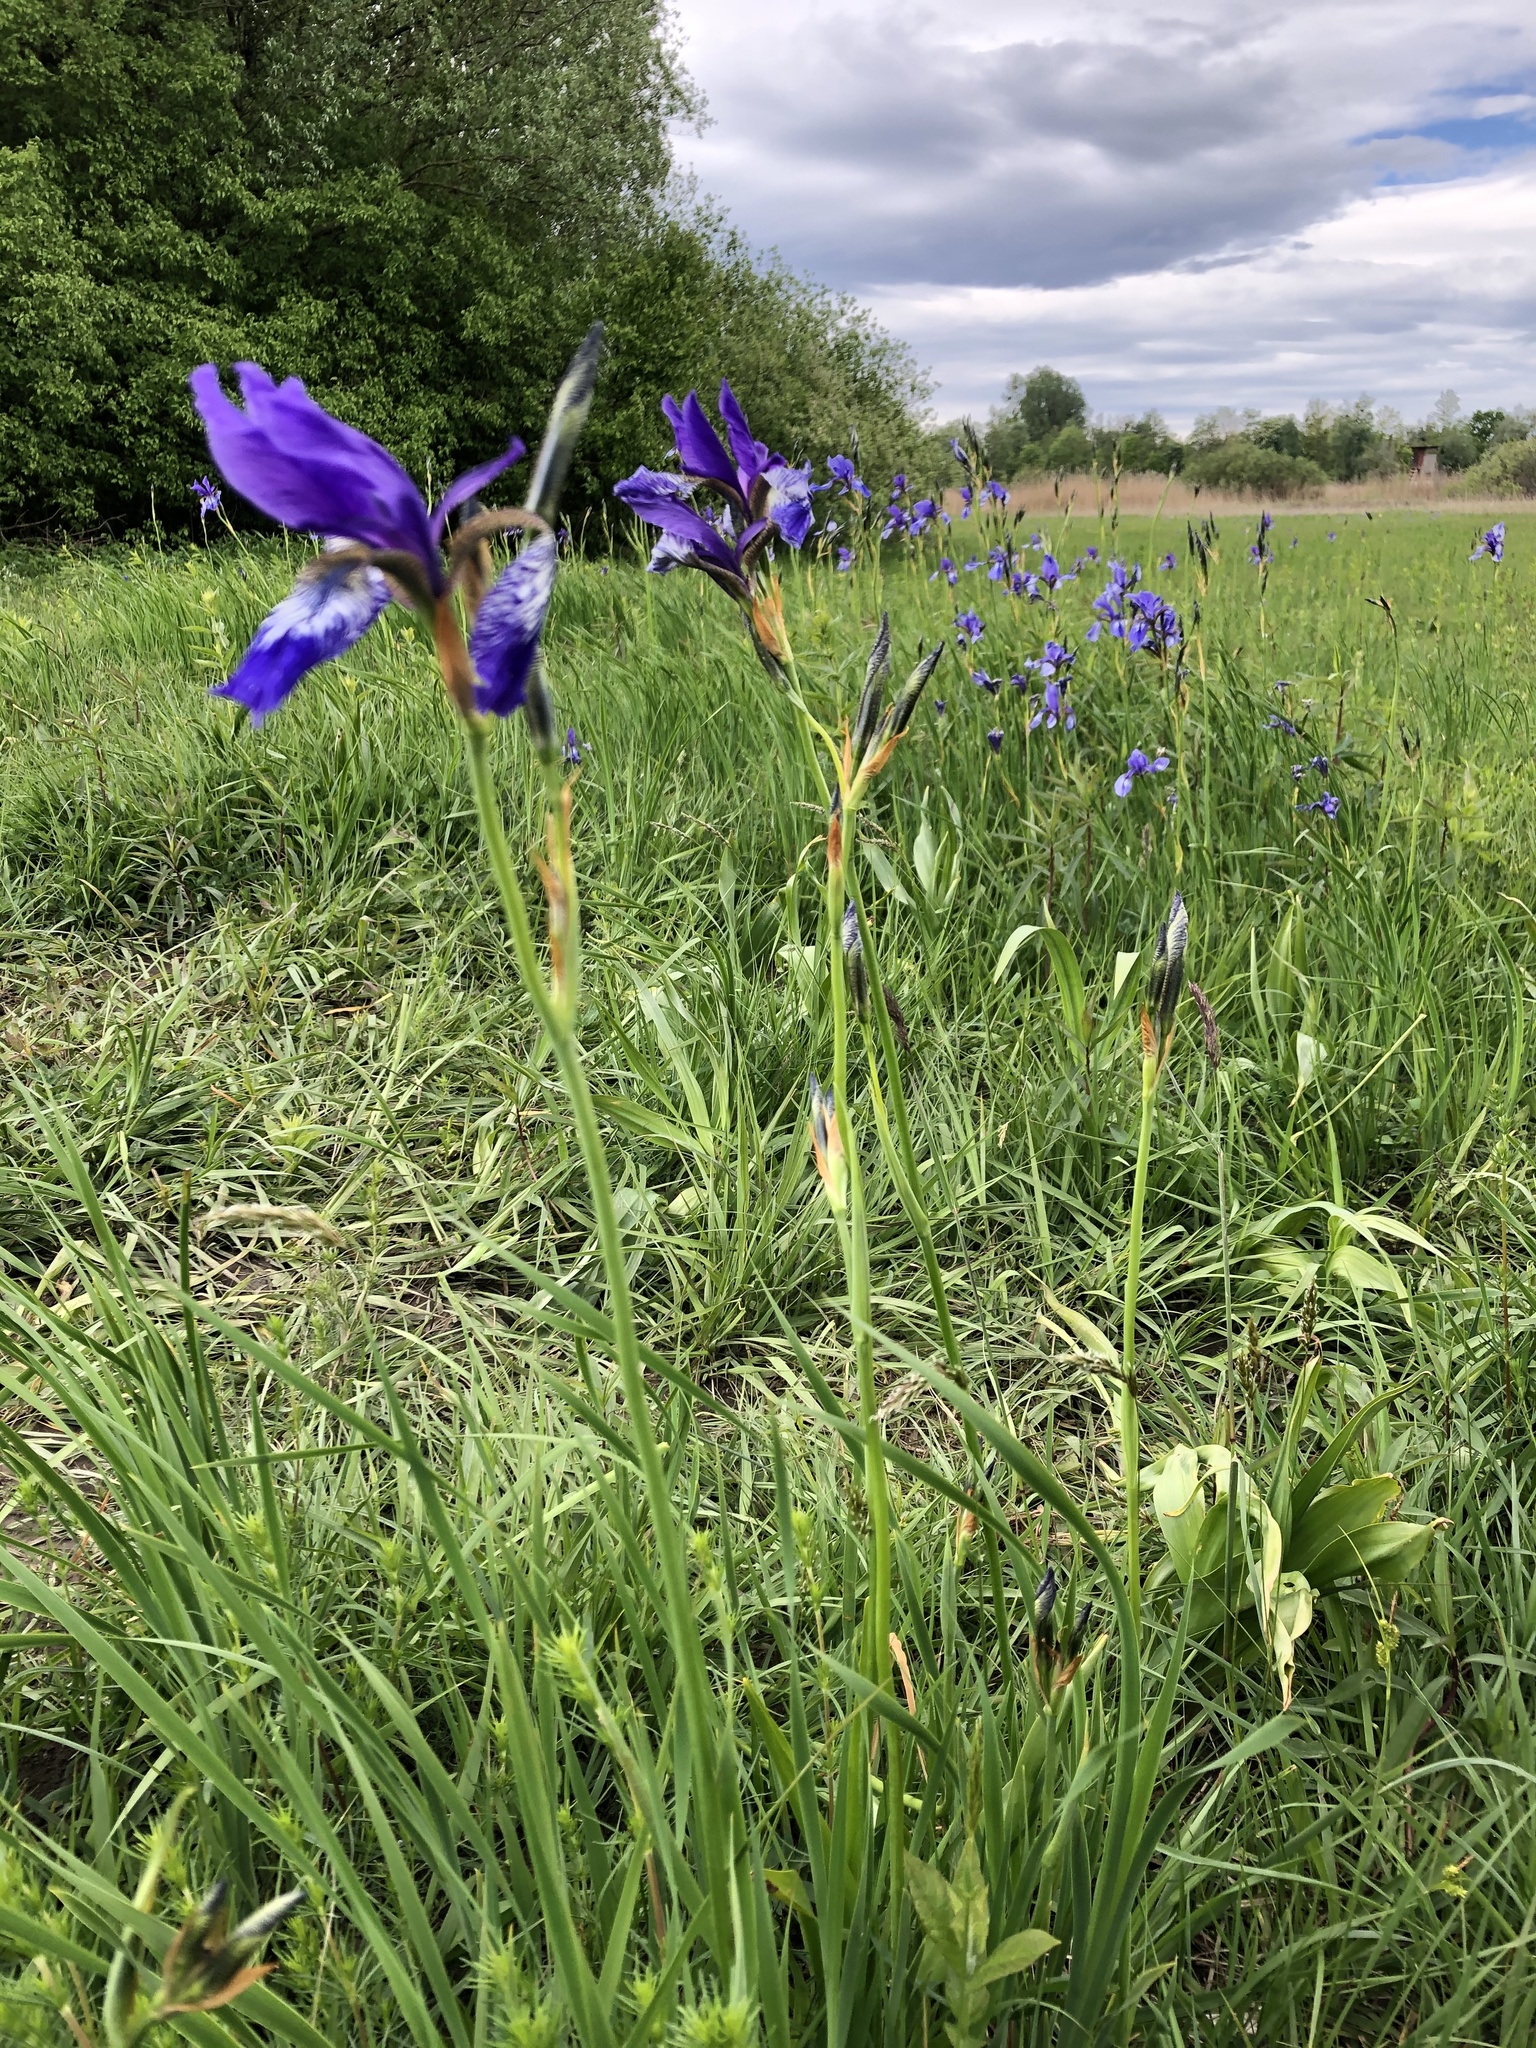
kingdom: Plantae
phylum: Tracheophyta
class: Liliopsida
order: Asparagales
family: Iridaceae
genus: Iris
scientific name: Iris sibirica
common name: Siberian iris
